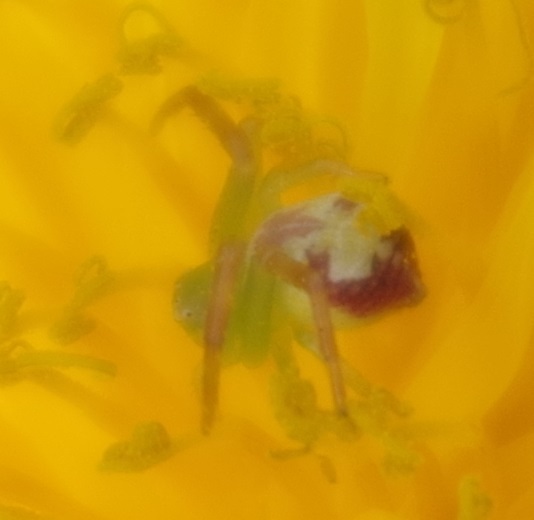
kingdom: Animalia
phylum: Arthropoda
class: Arachnida
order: Araneae
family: Thomisidae
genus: Ebrechtella
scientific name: Ebrechtella tricuspidata
